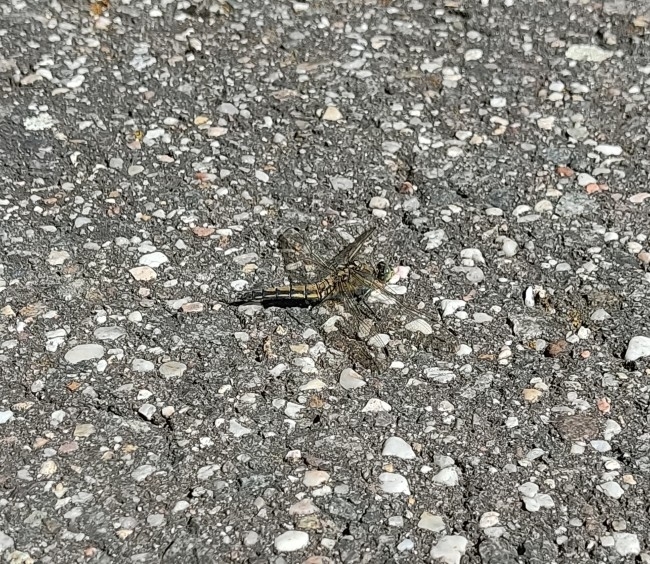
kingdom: Animalia
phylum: Arthropoda
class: Insecta
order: Odonata
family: Libellulidae
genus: Orthetrum
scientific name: Orthetrum cancellatum
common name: Black-tailed skimmer
